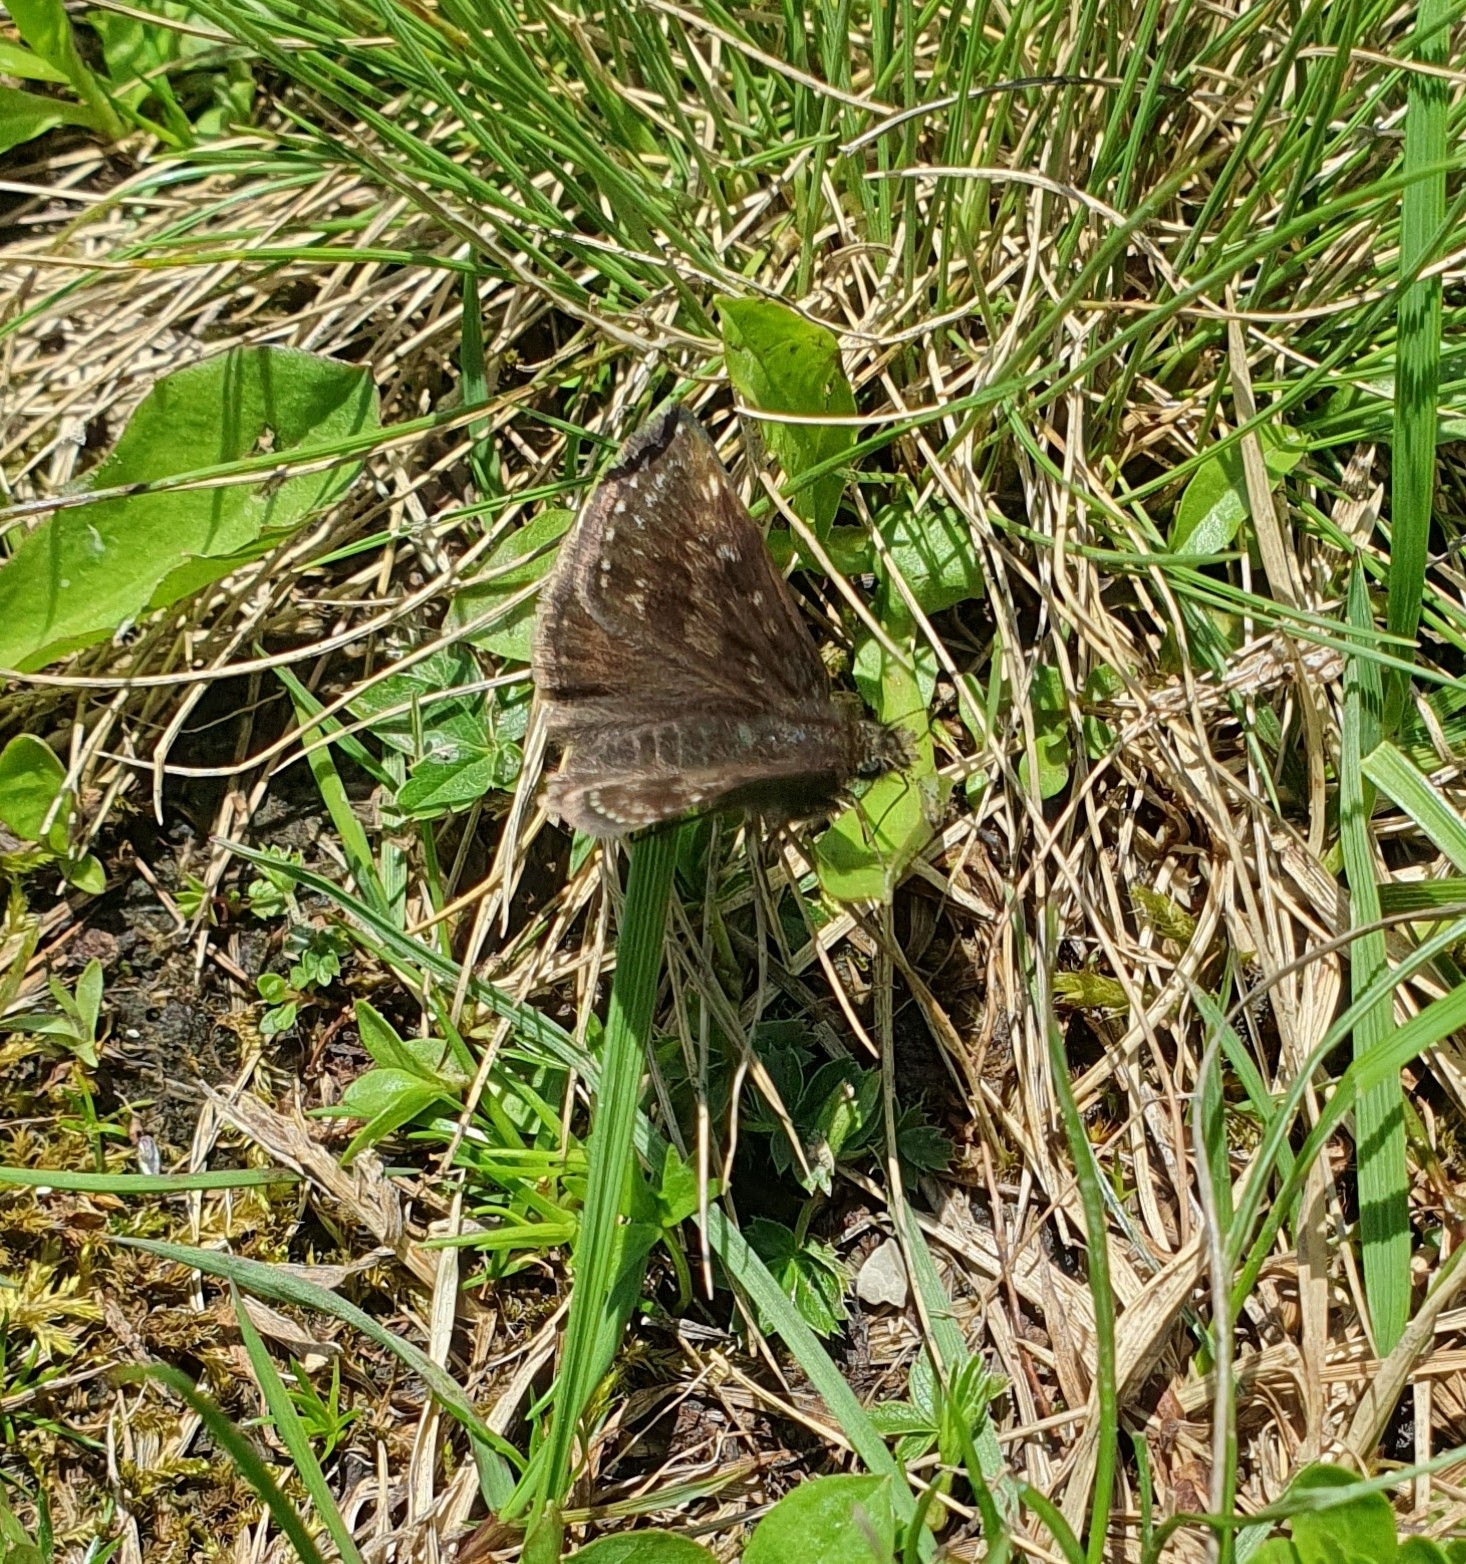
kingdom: Animalia
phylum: Arthropoda
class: Insecta
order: Lepidoptera
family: Hesperiidae
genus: Erynnis
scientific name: Erynnis tages
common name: Dingy skipper
